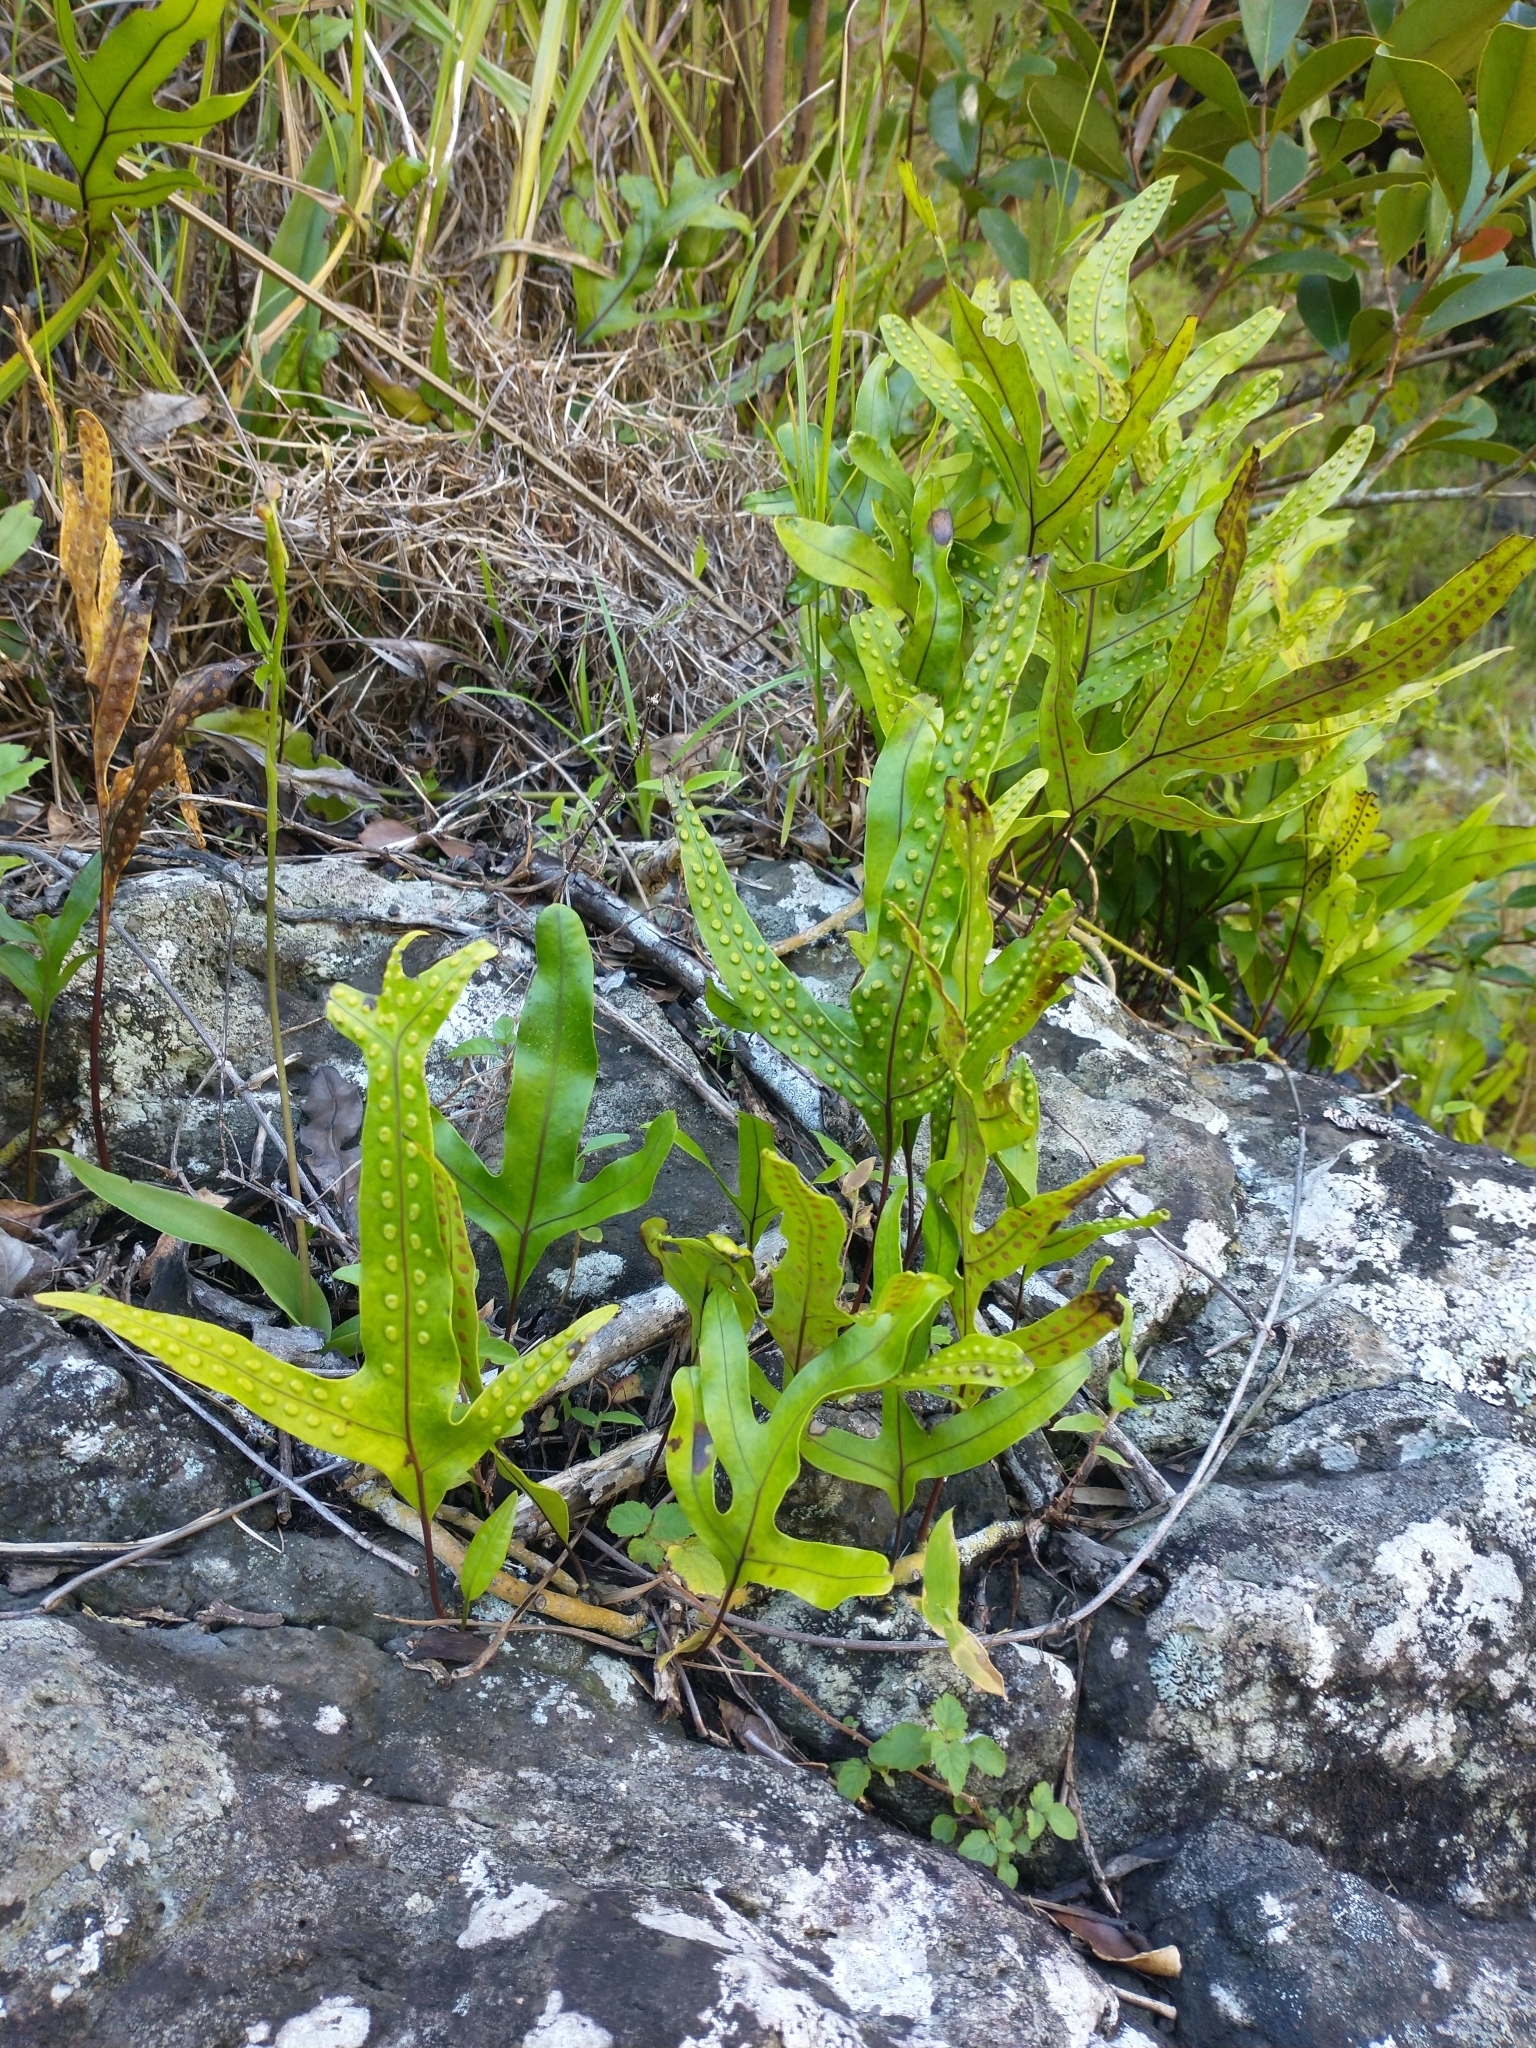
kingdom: Plantae
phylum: Tracheophyta
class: Polypodiopsida
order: Polypodiales
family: Polypodiaceae
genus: Microsorum
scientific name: Microsorum scolopendria
